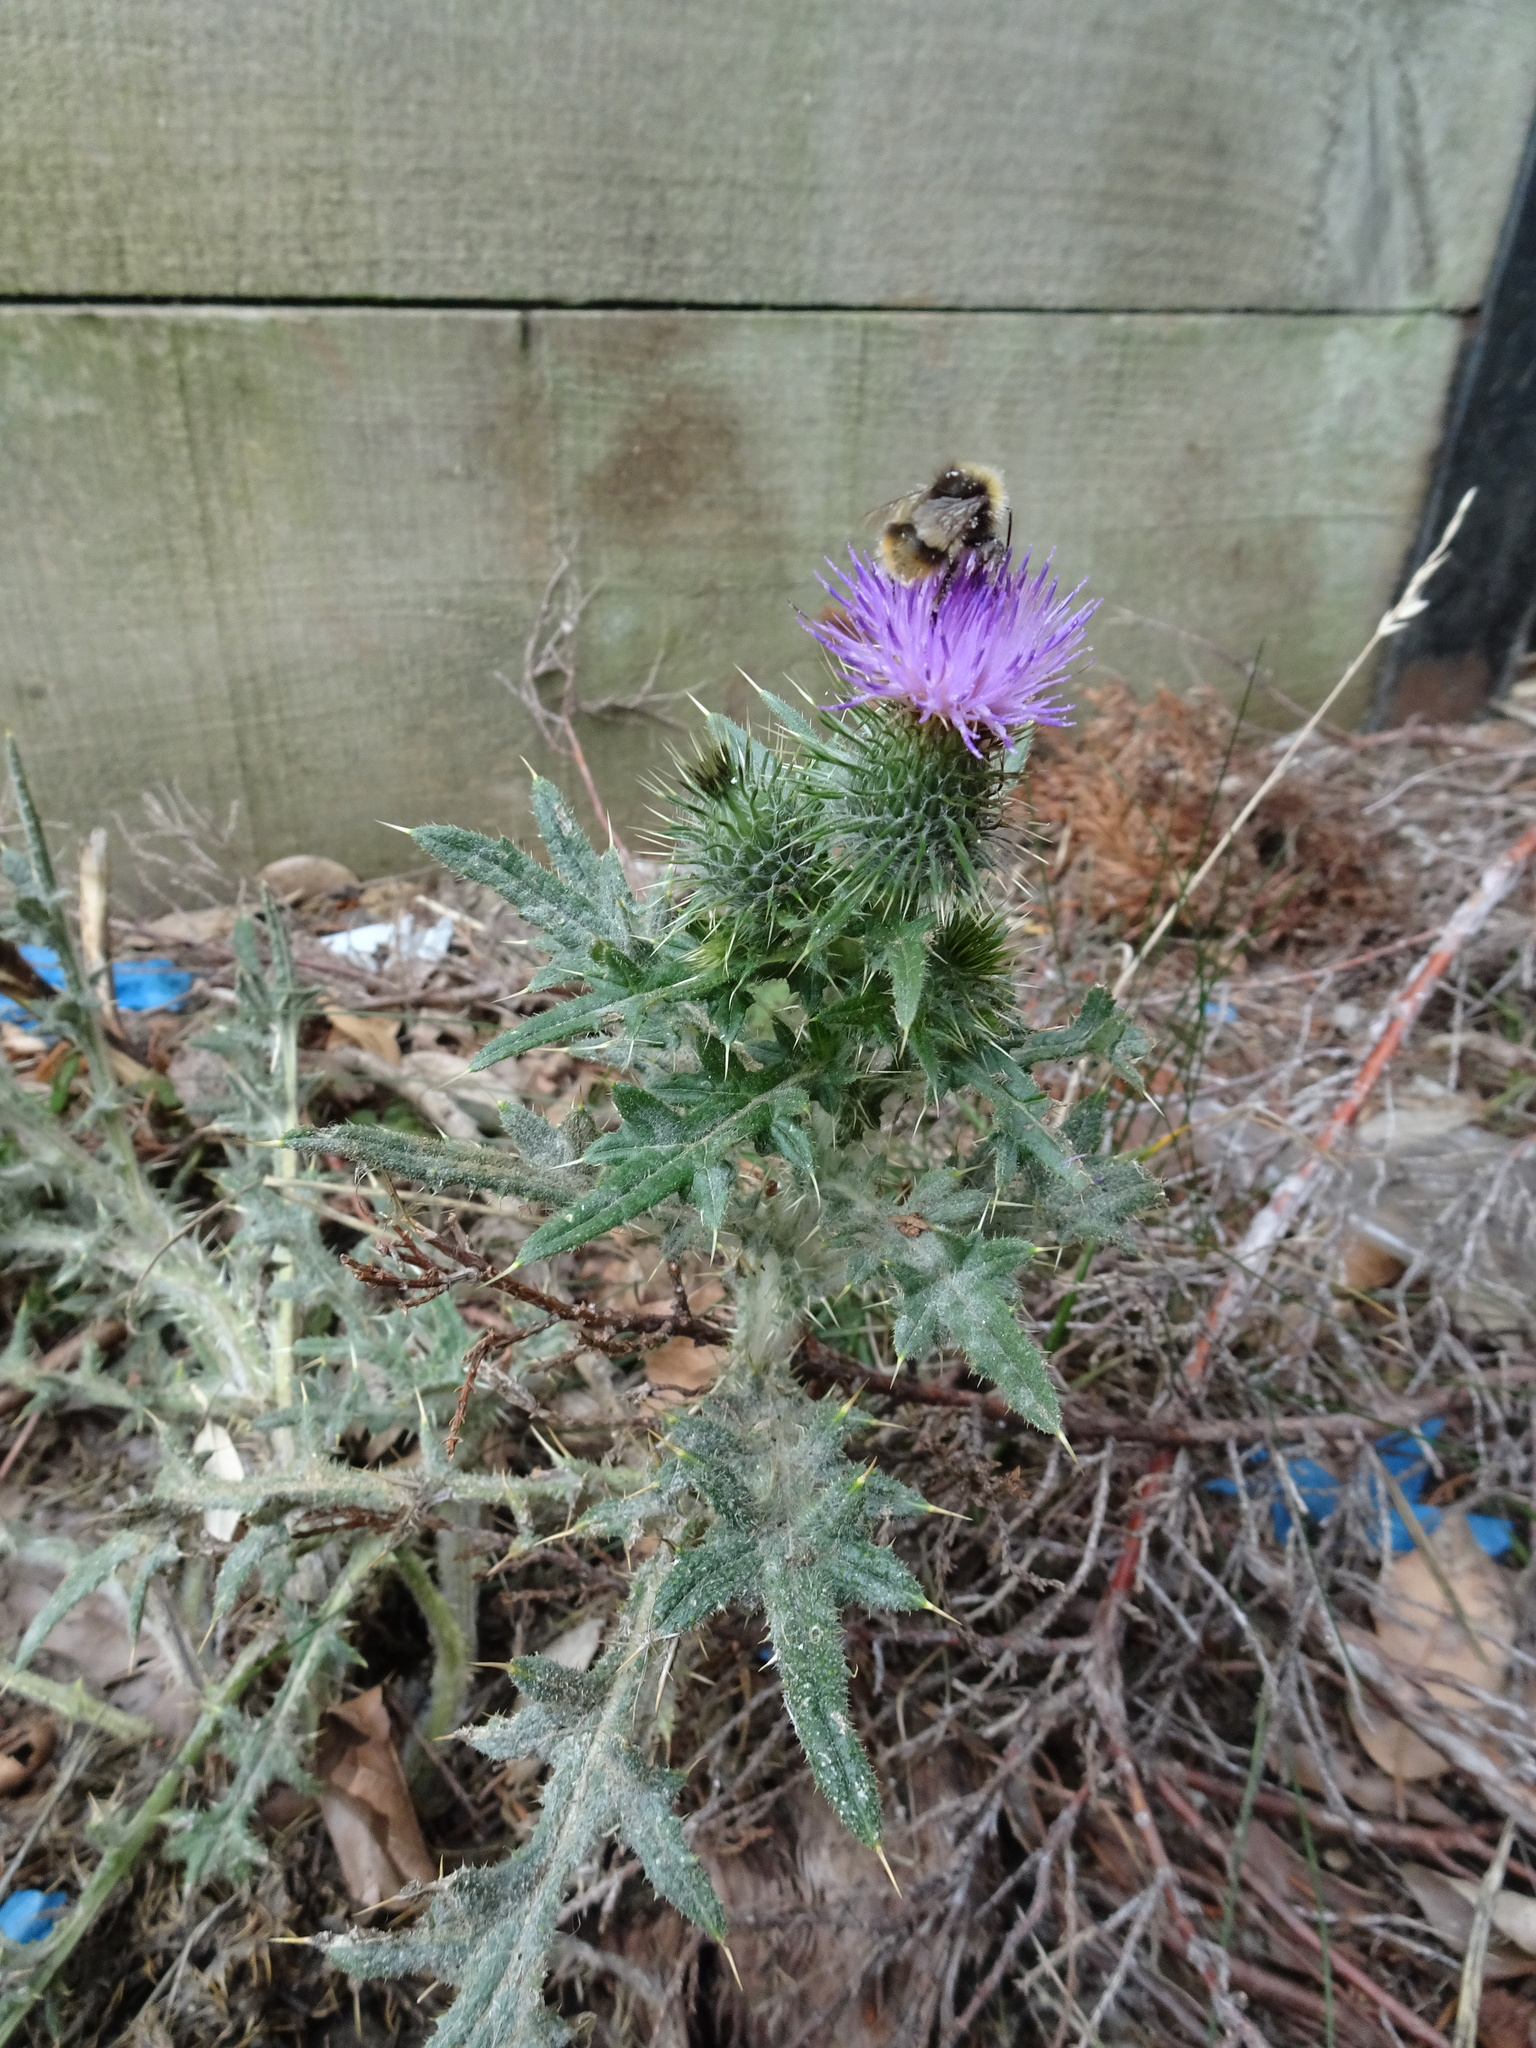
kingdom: Plantae
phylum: Tracheophyta
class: Magnoliopsida
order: Asterales
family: Asteraceae
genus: Cirsium
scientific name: Cirsium vulgare
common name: Bull thistle
